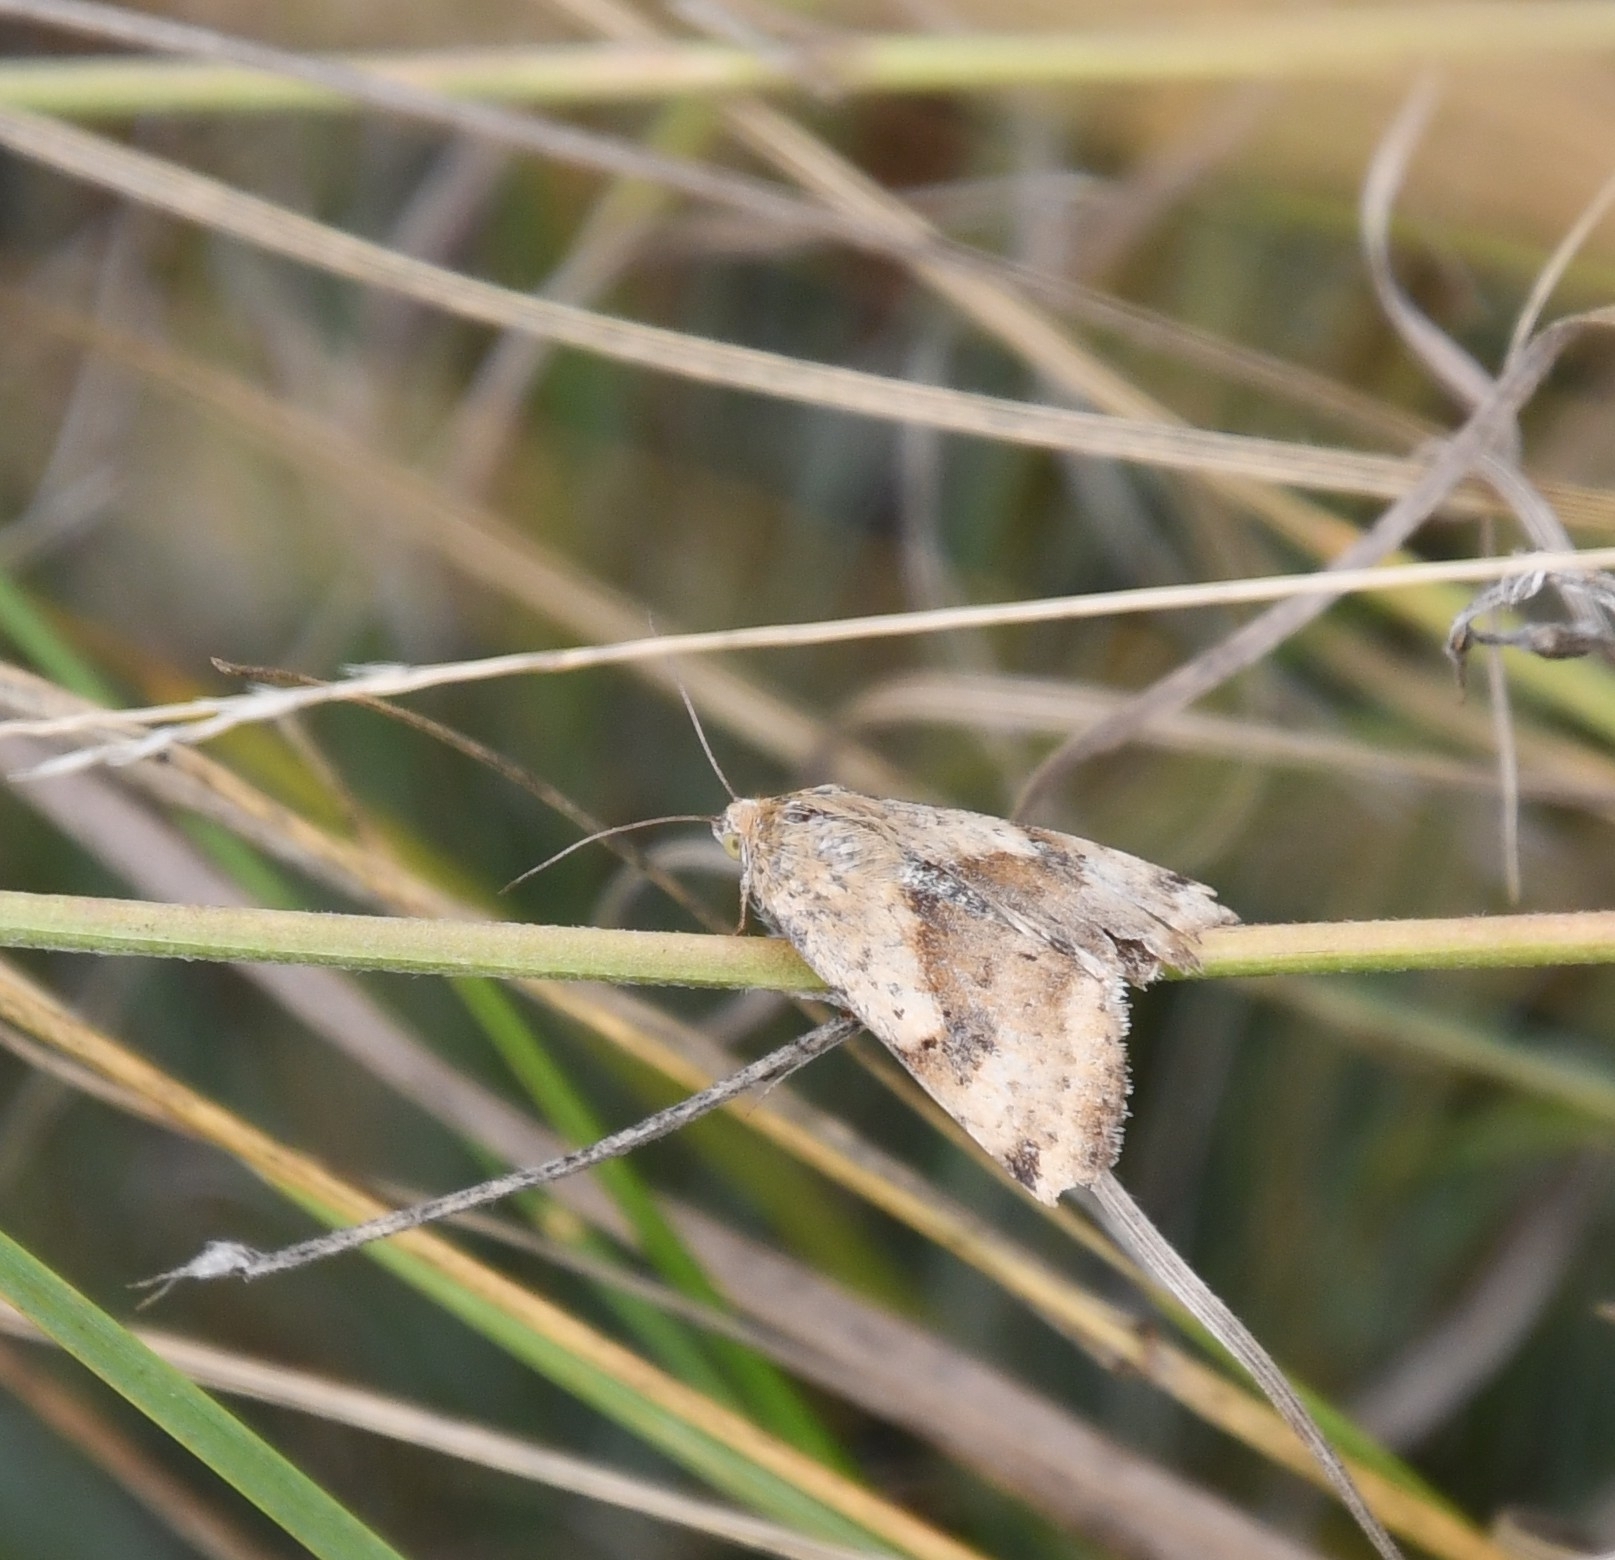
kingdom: Animalia
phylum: Arthropoda
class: Insecta
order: Lepidoptera
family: Noctuidae
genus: Heliothis
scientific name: Heliothis adaucta
